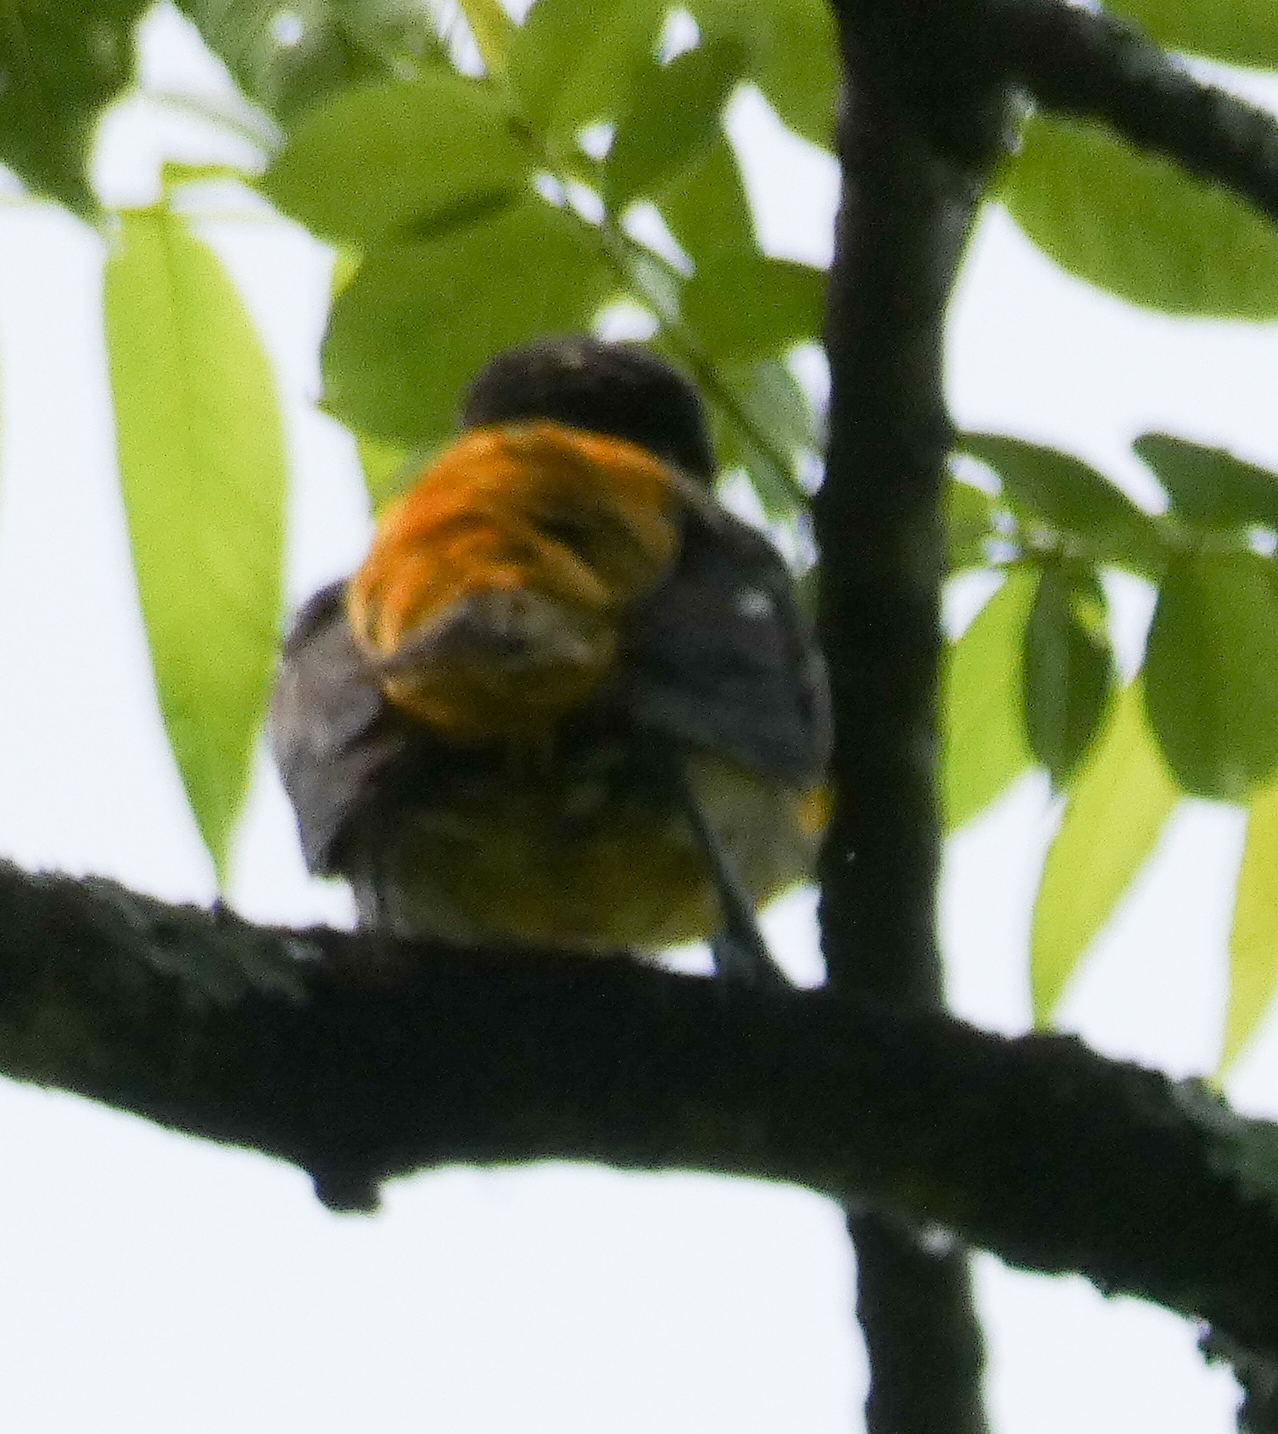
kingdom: Animalia
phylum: Chordata
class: Aves
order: Passeriformes
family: Icteridae
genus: Icterus
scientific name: Icterus galbula
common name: Baltimore oriole
